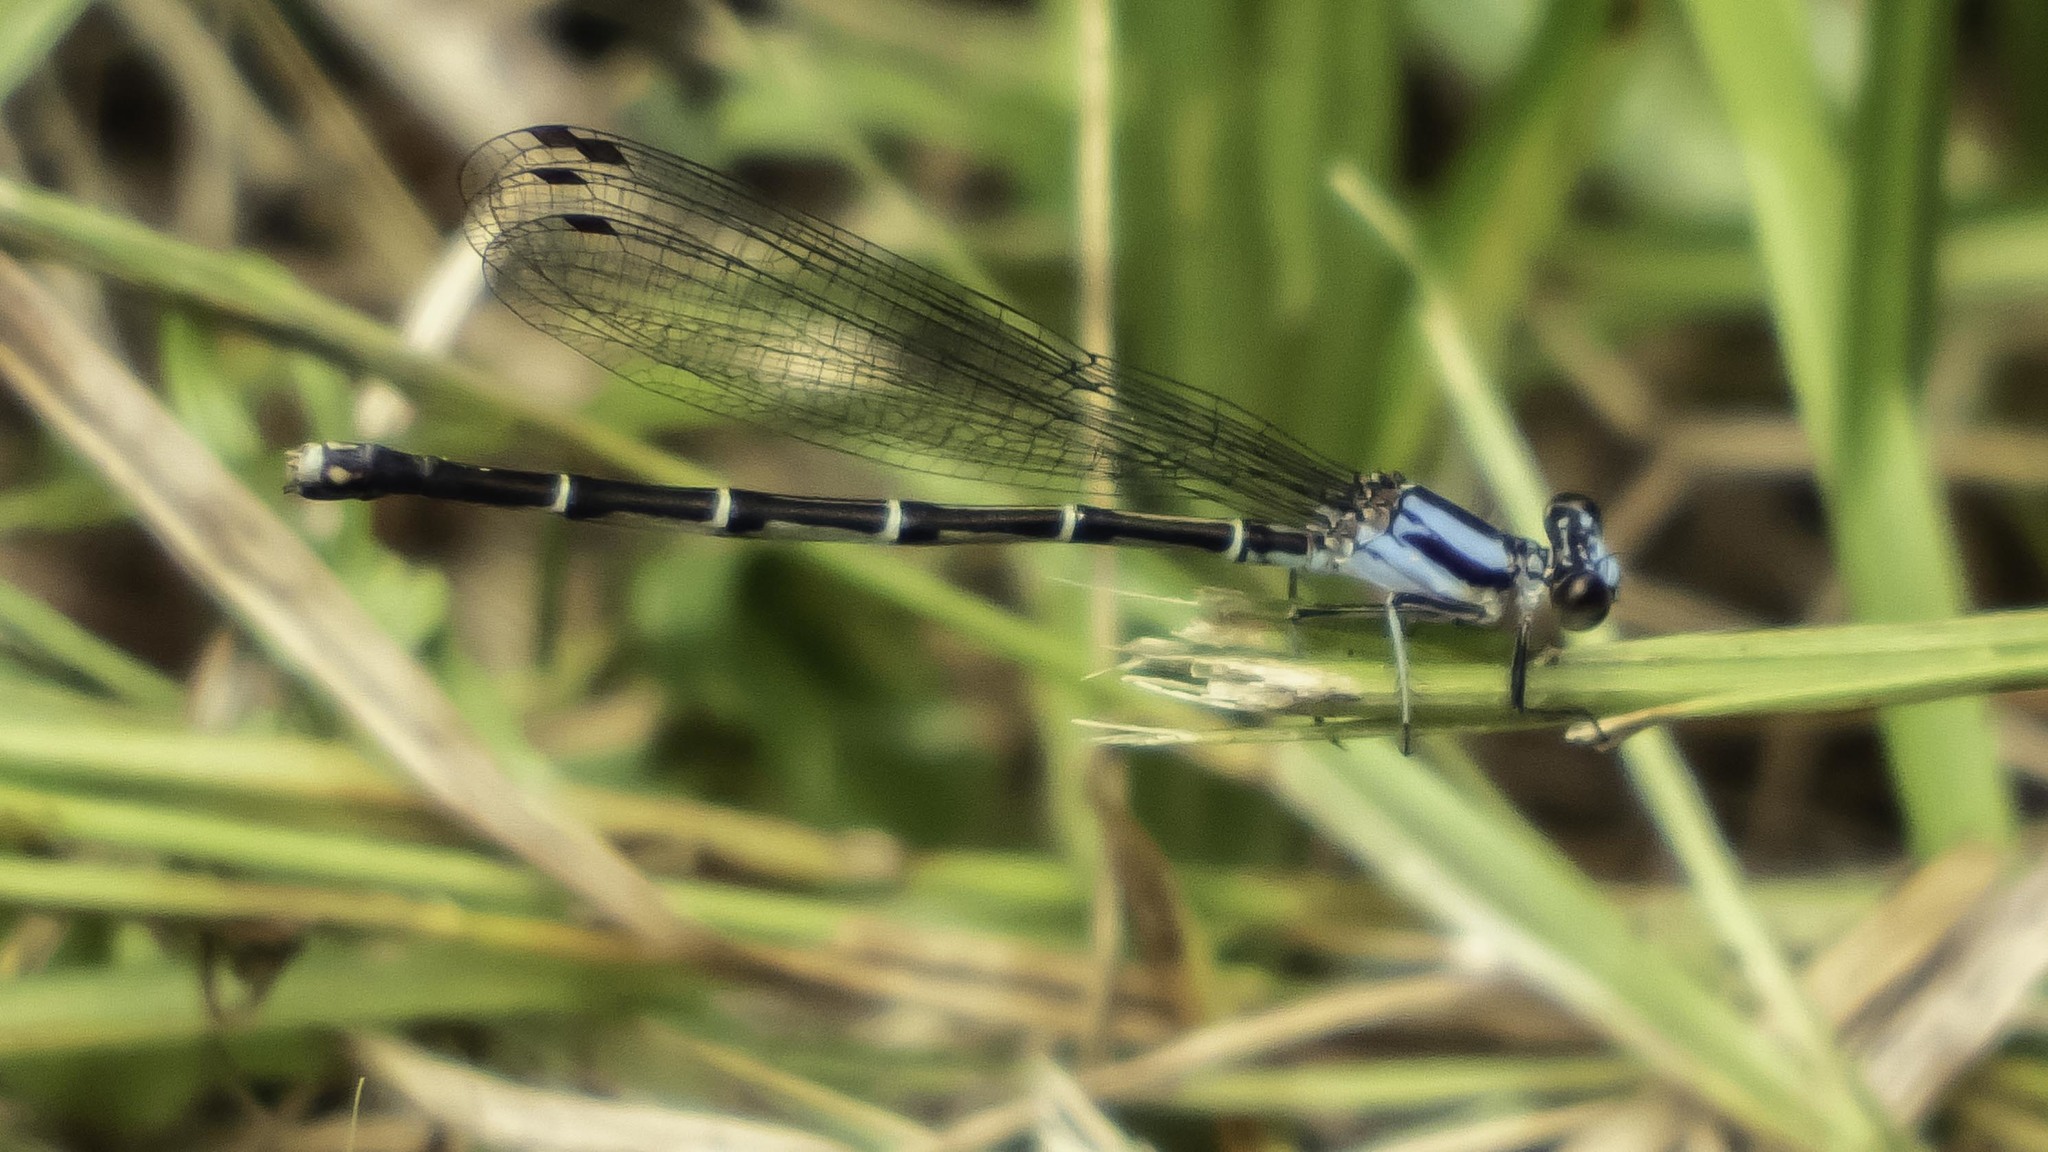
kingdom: Animalia
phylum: Arthropoda
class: Insecta
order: Odonata
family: Coenagrionidae
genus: Argia
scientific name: Argia tibialis
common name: Blue-tipped dancer
